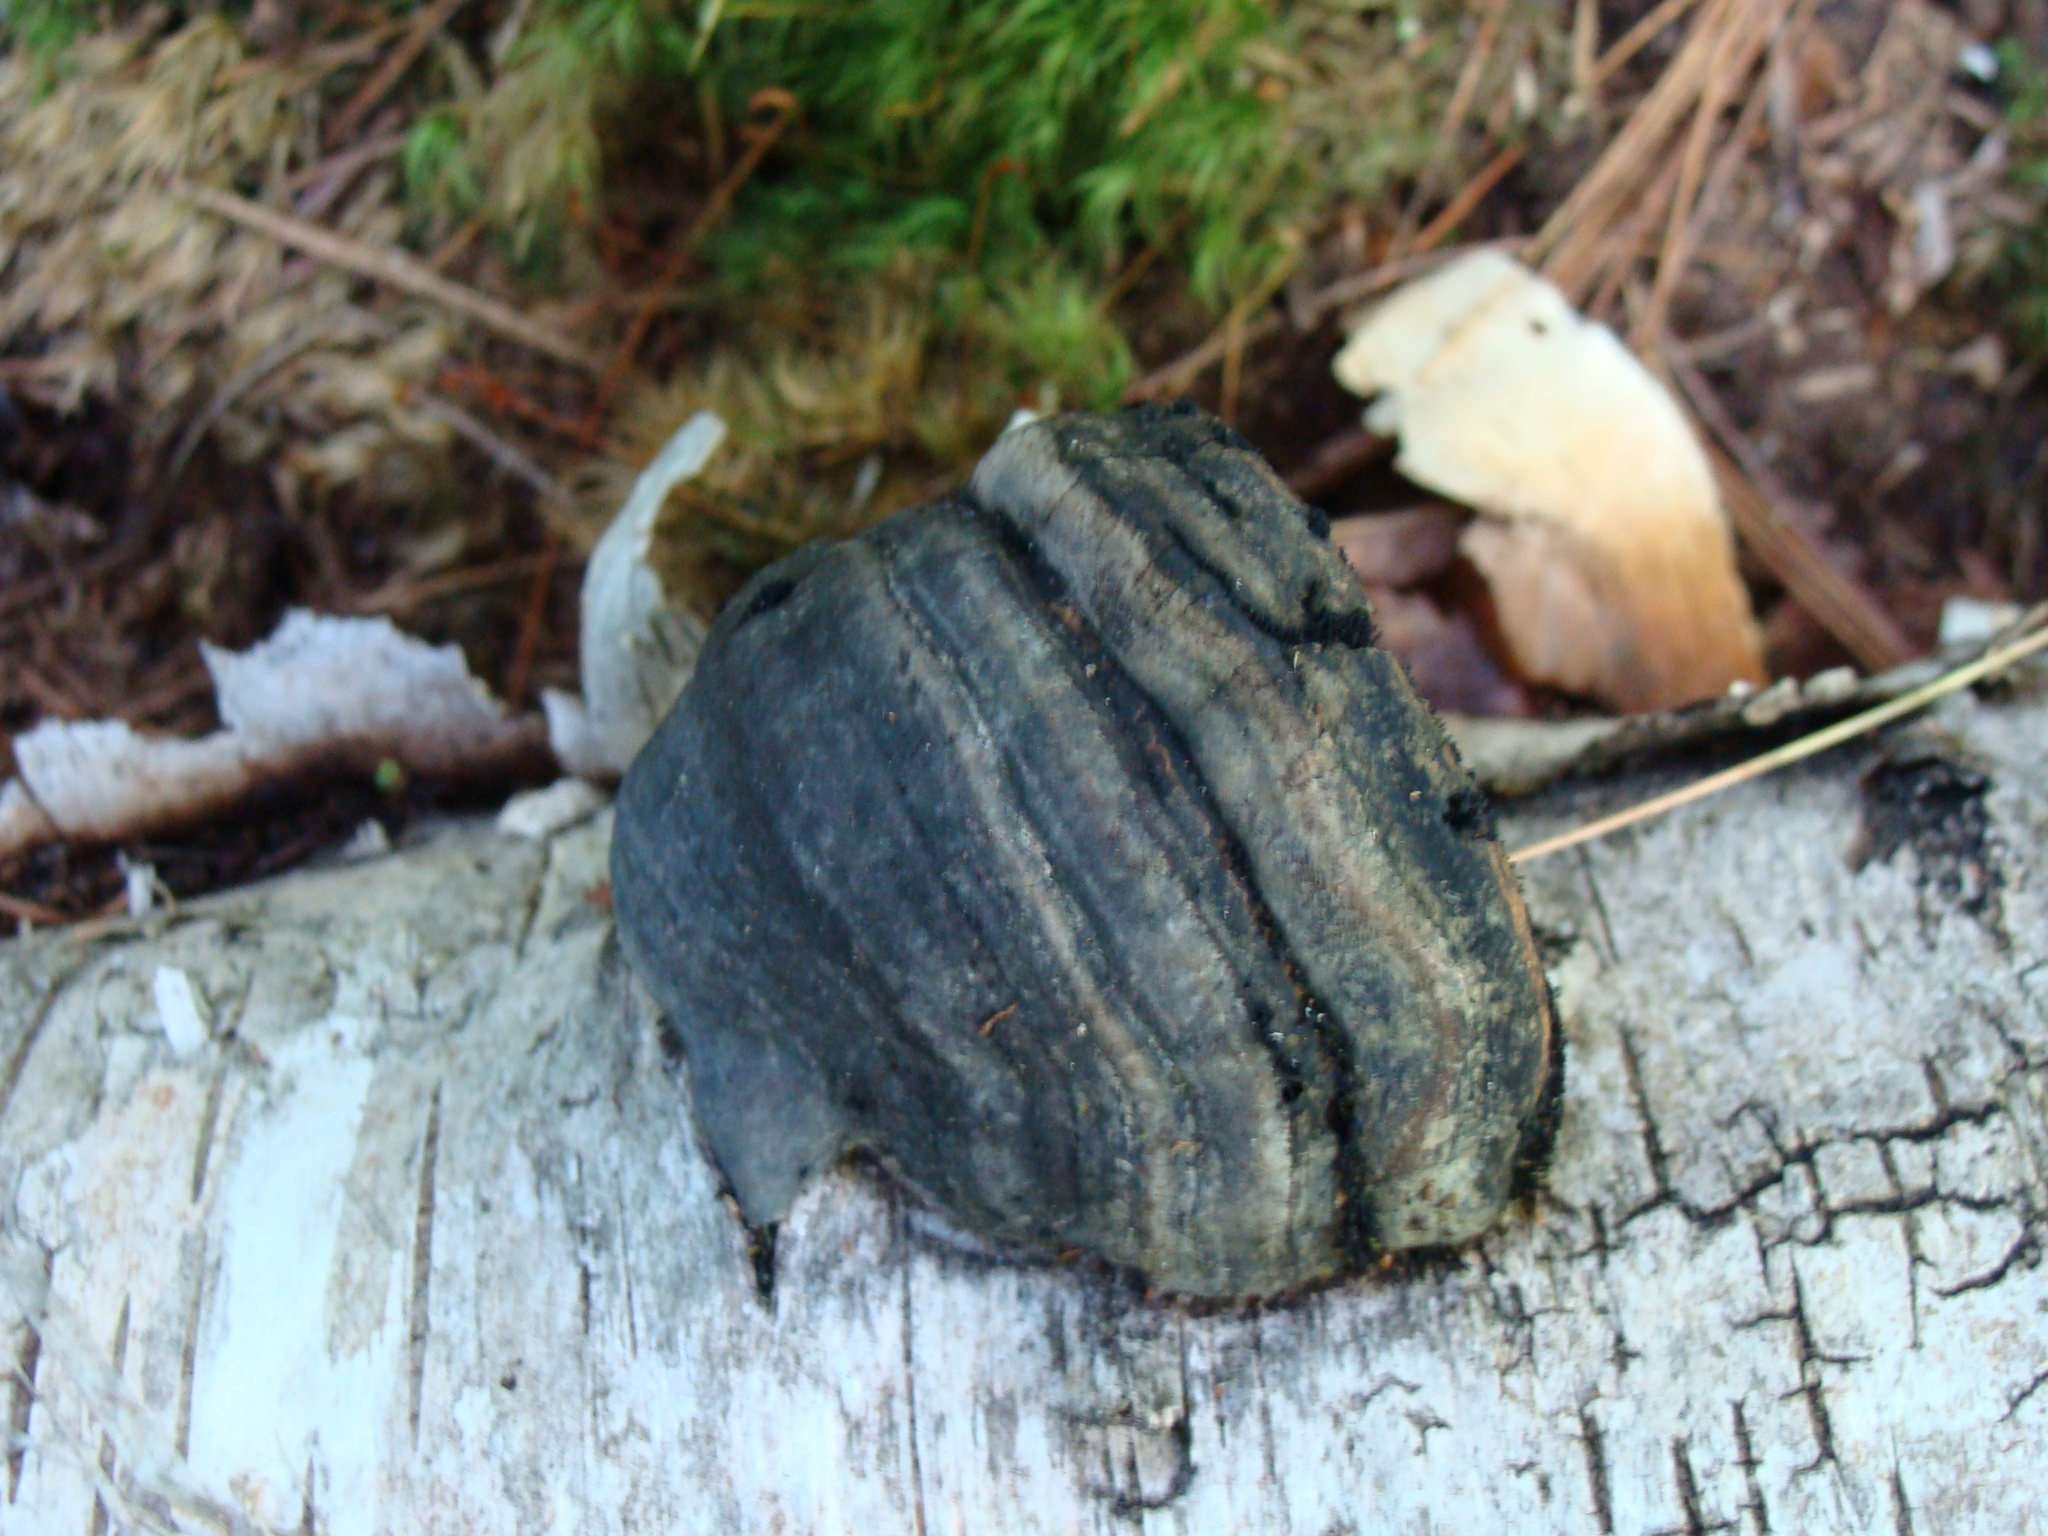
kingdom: Fungi
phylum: Basidiomycota
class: Agaricomycetes
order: Polyporales
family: Polyporaceae
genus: Fomes
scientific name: Fomes fomentarius
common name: Hoof fungus
